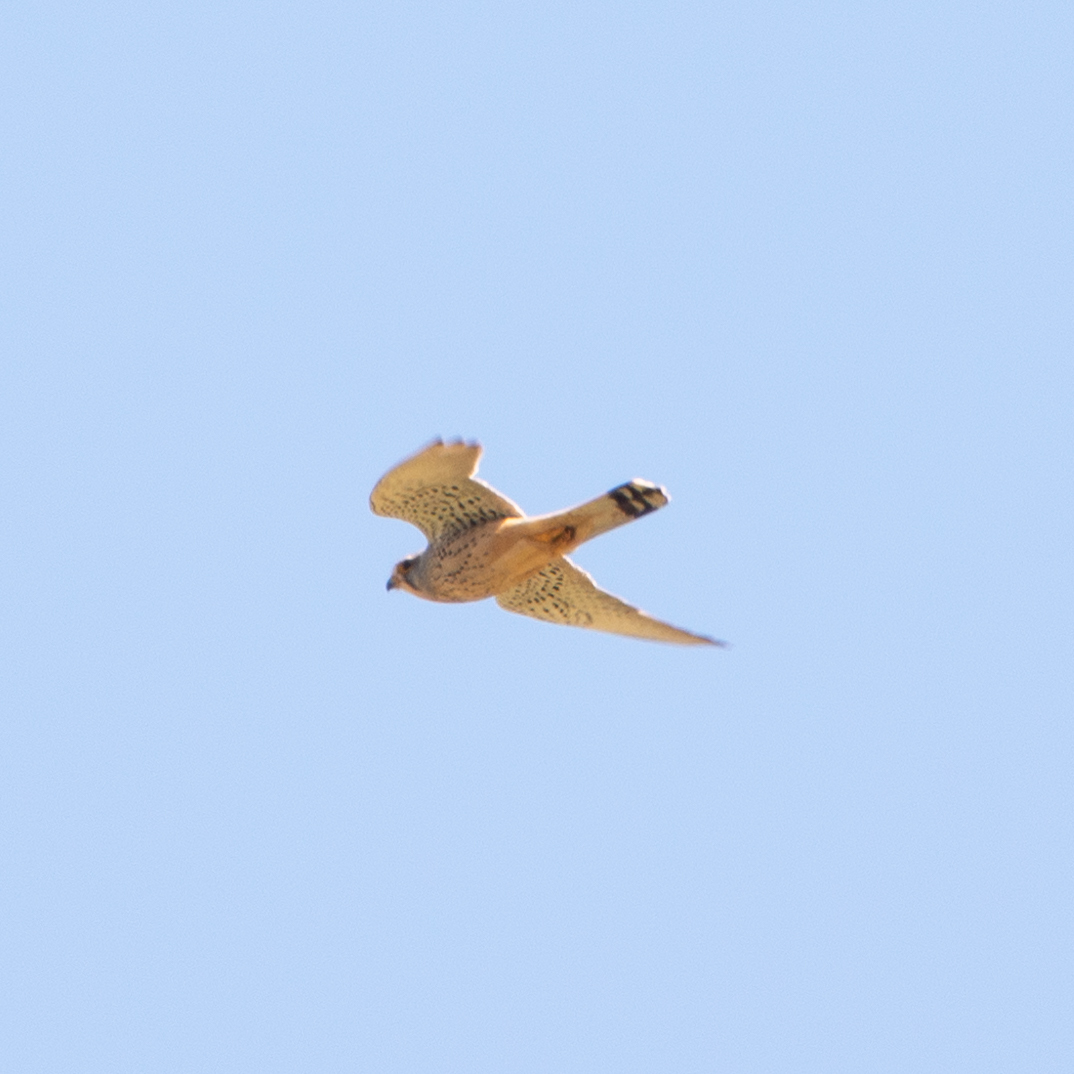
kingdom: Animalia
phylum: Chordata
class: Aves
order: Falconiformes
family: Falconidae
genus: Falco
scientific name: Falco tinnunculus
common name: Common kestrel
